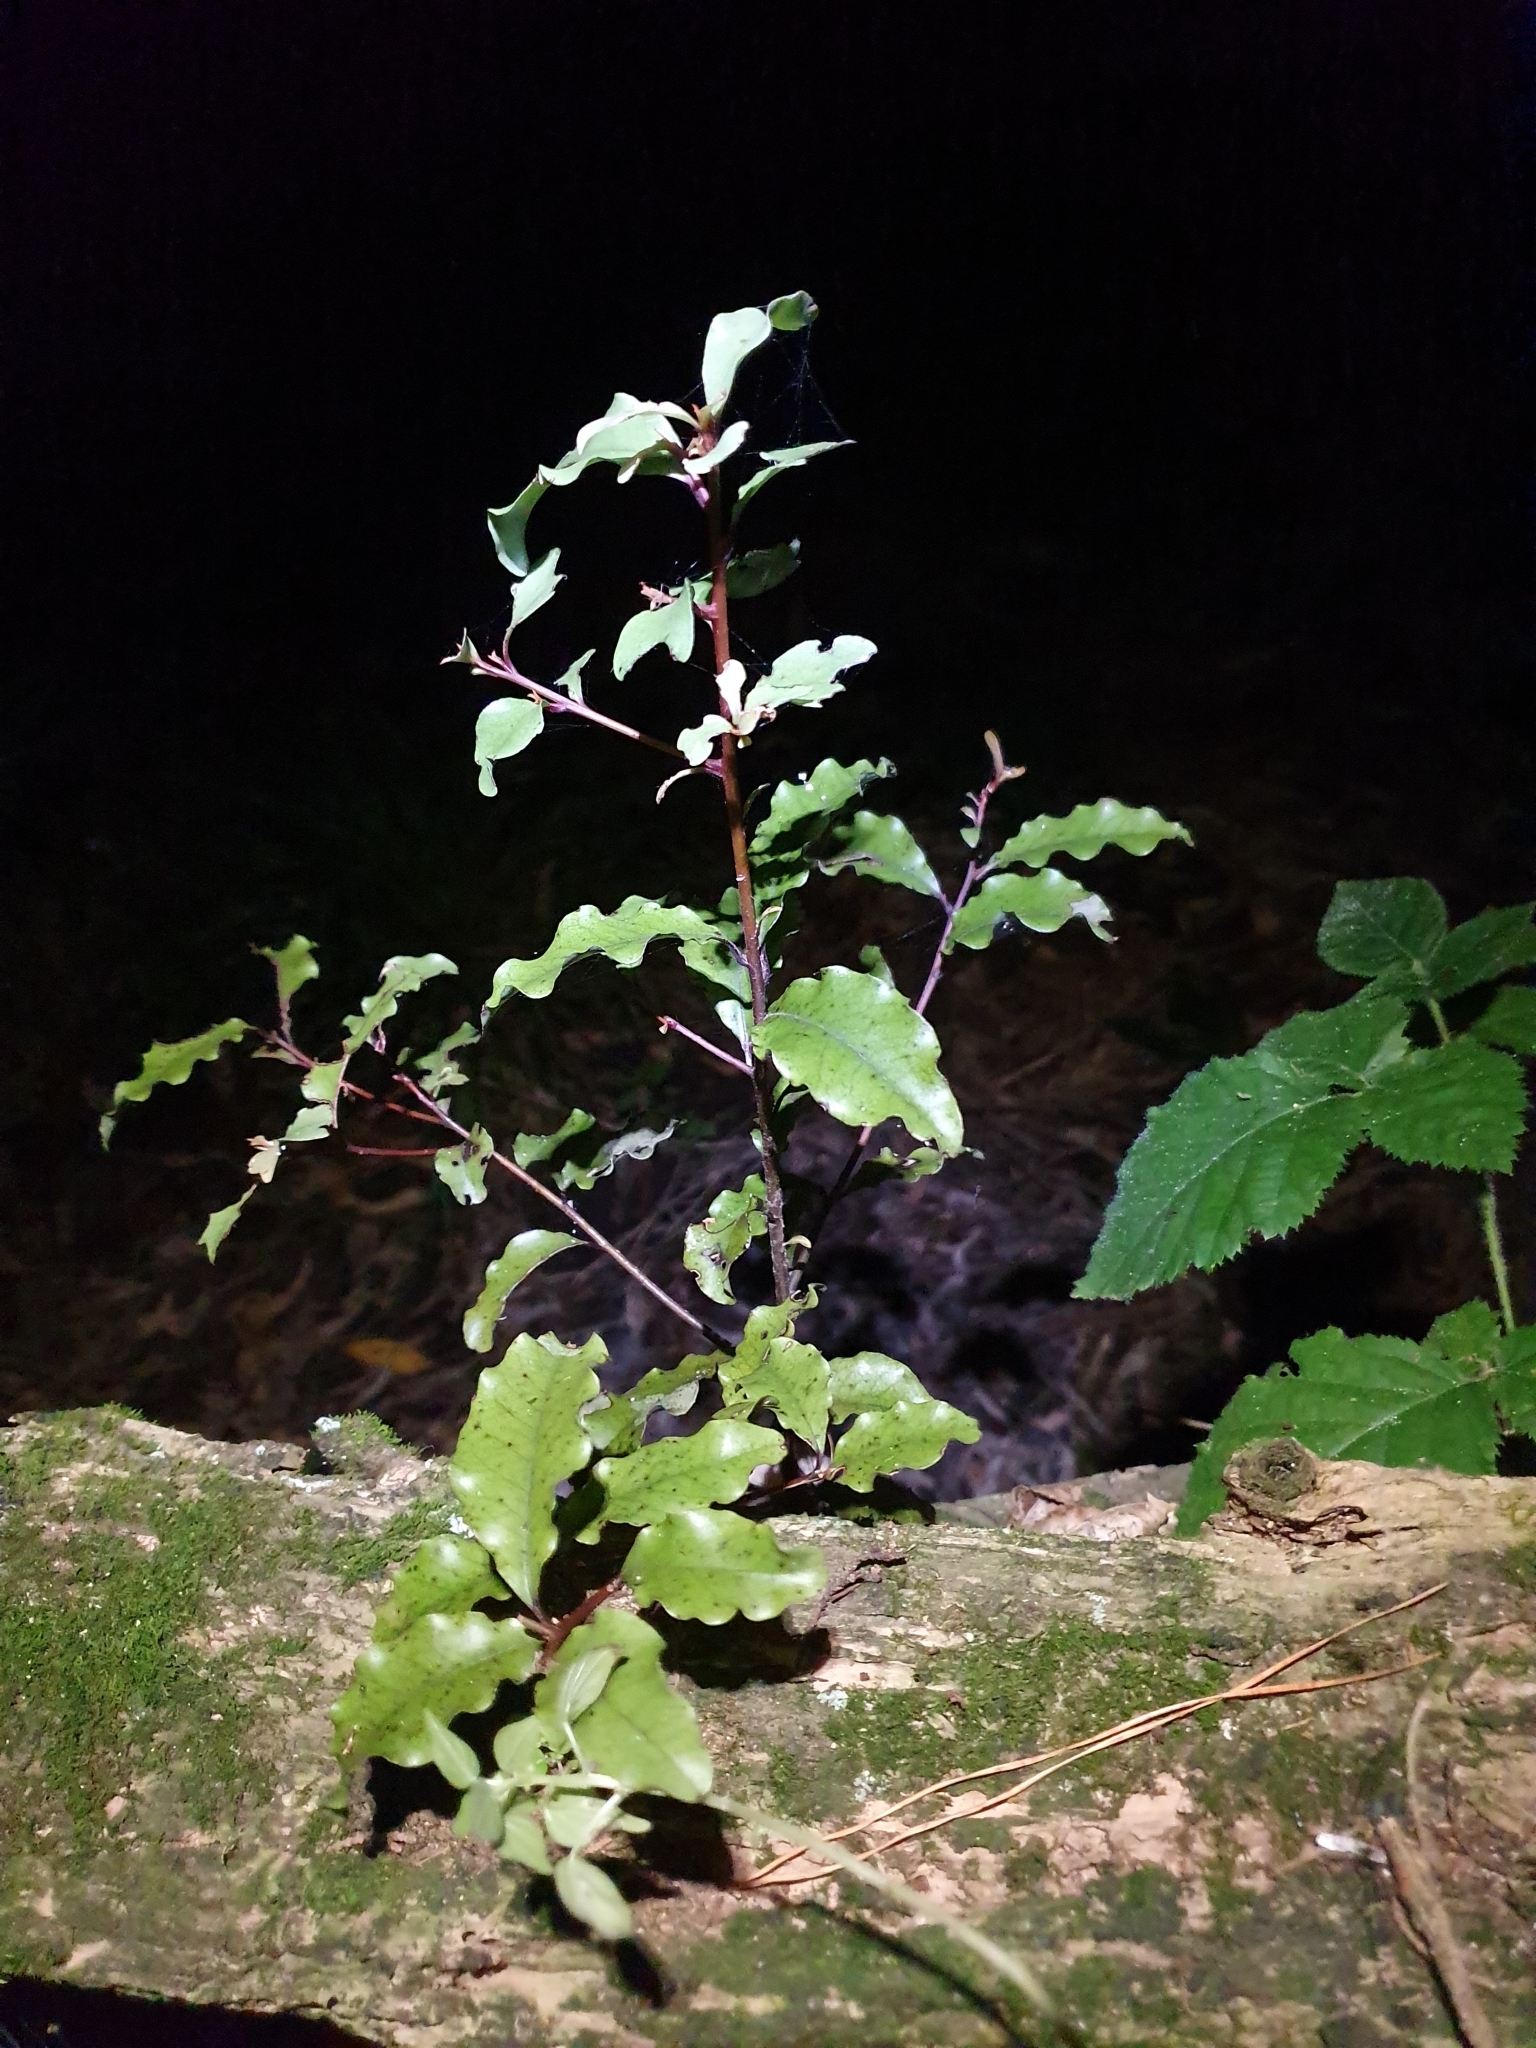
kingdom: Plantae
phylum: Tracheophyta
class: Magnoliopsida
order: Ericales
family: Primulaceae
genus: Myrsine
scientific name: Myrsine australis
